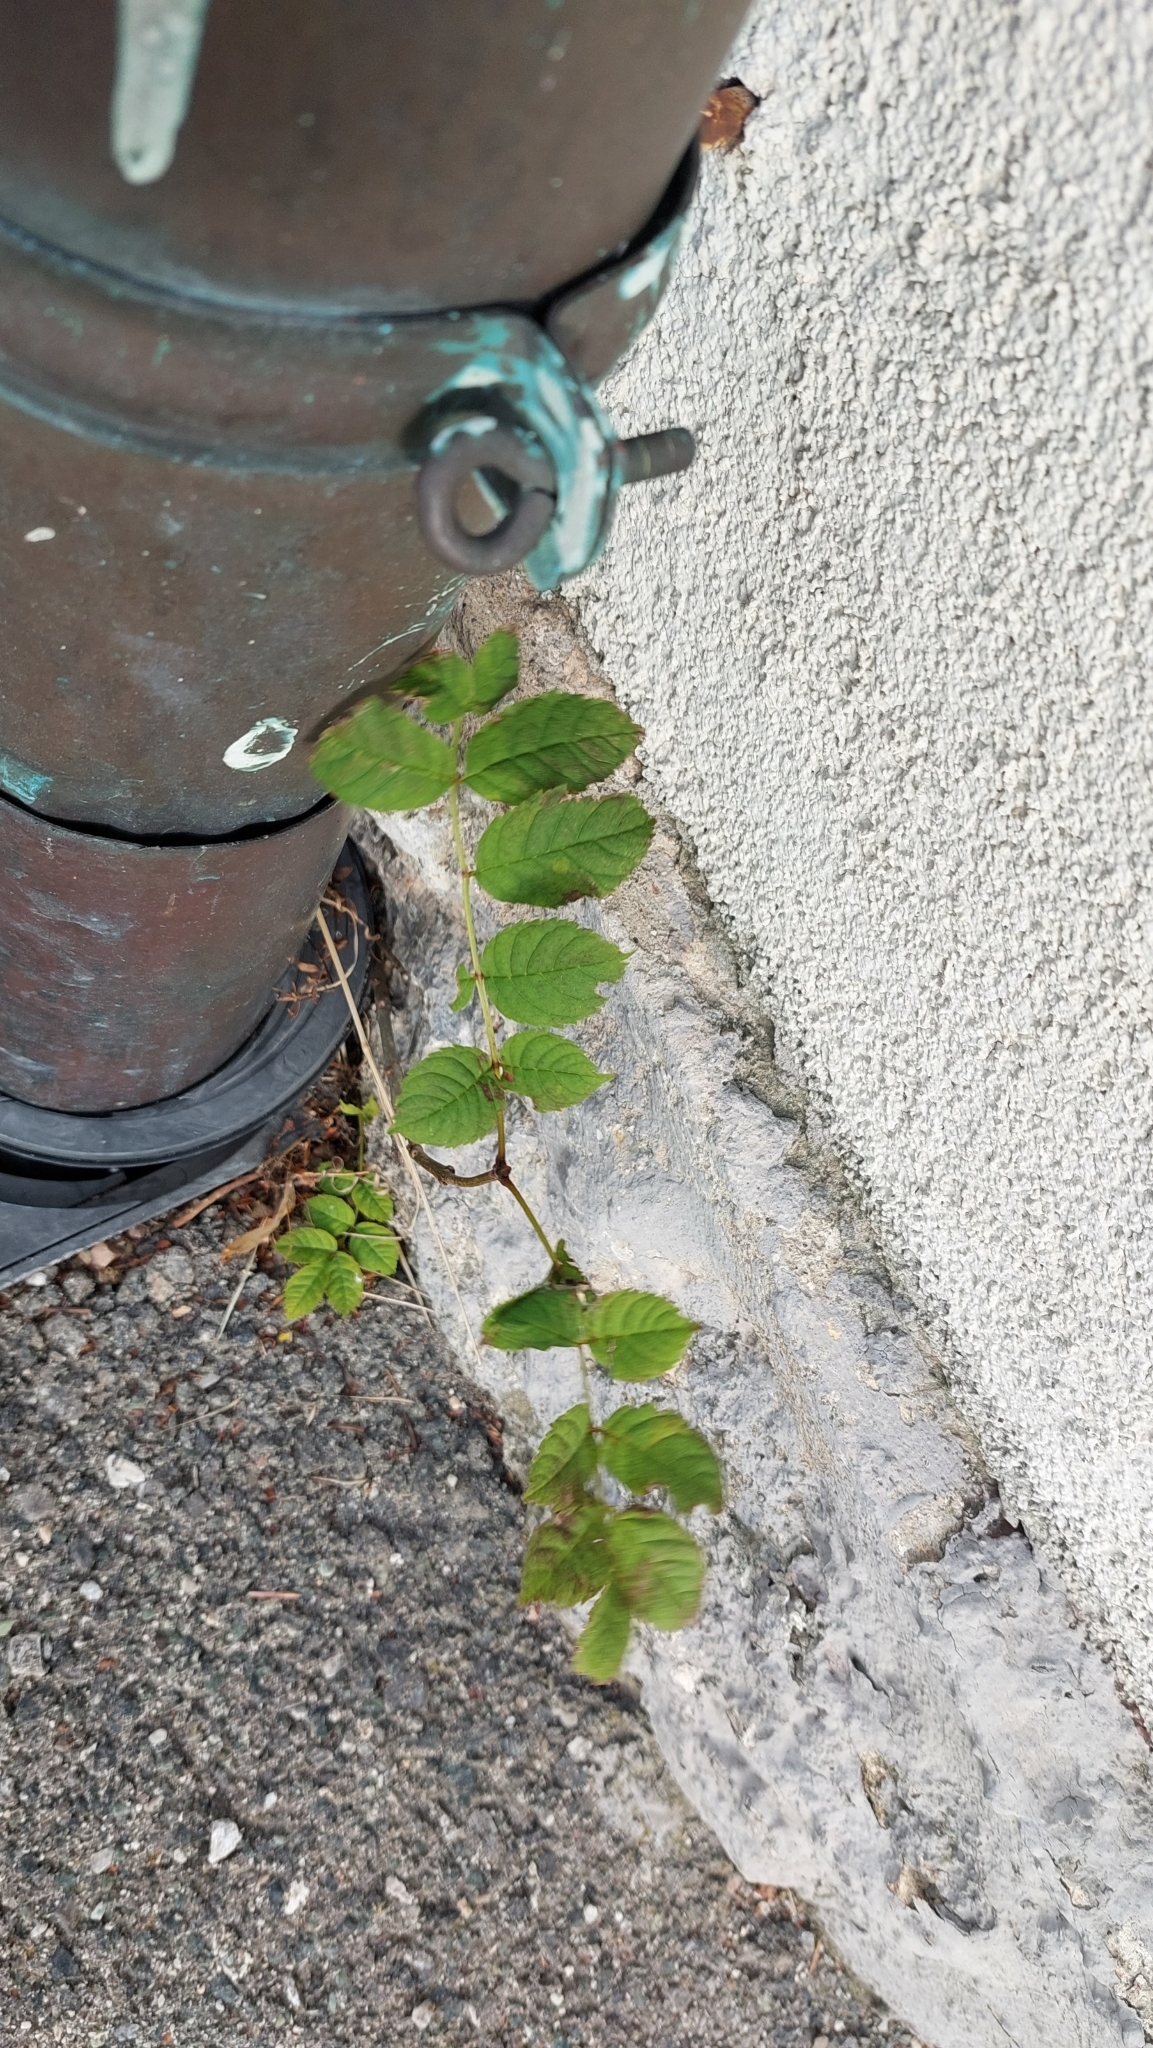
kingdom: Plantae
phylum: Tracheophyta
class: Magnoliopsida
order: Lamiales
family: Oleaceae
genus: Fraxinus
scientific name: Fraxinus excelsior
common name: European ash
